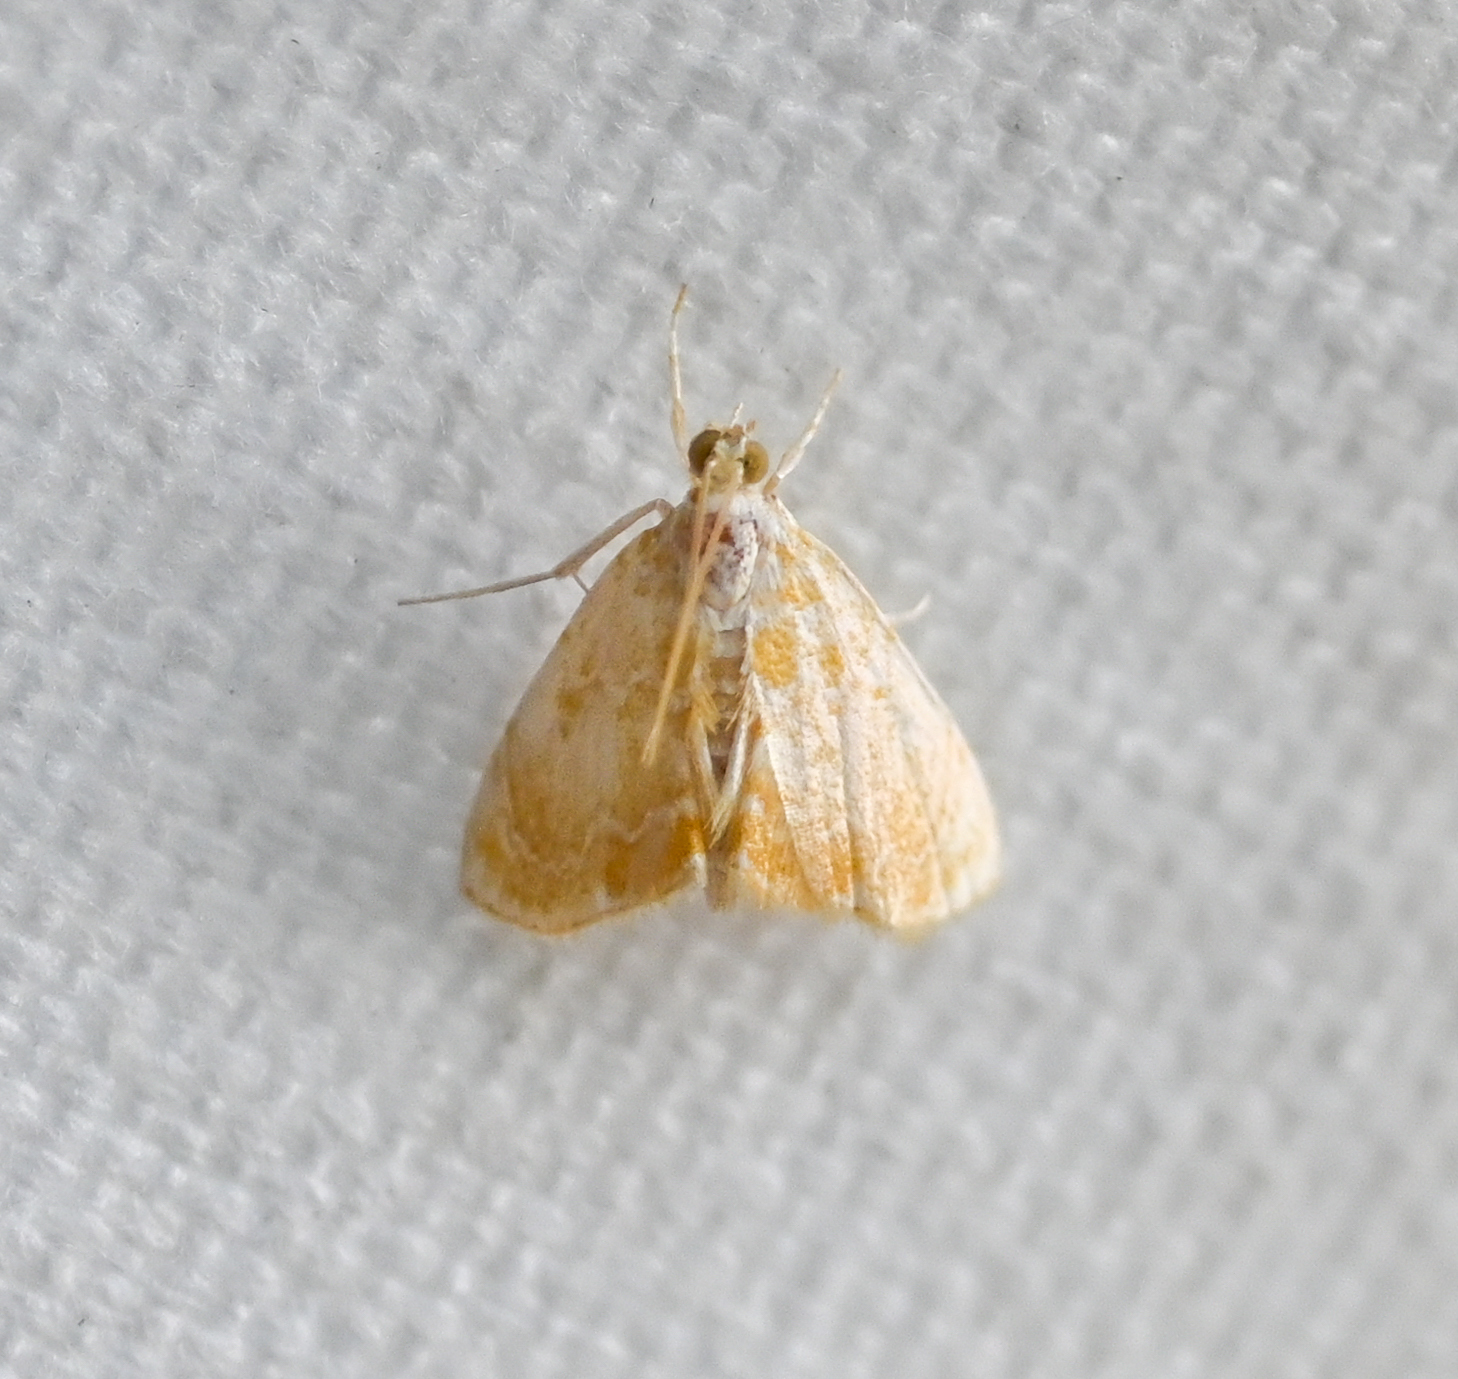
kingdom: Animalia
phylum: Arthropoda
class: Insecta
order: Lepidoptera
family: Crambidae
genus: Glaphyria
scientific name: Glaphyria glaphyralis
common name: Common glaphyria moth
